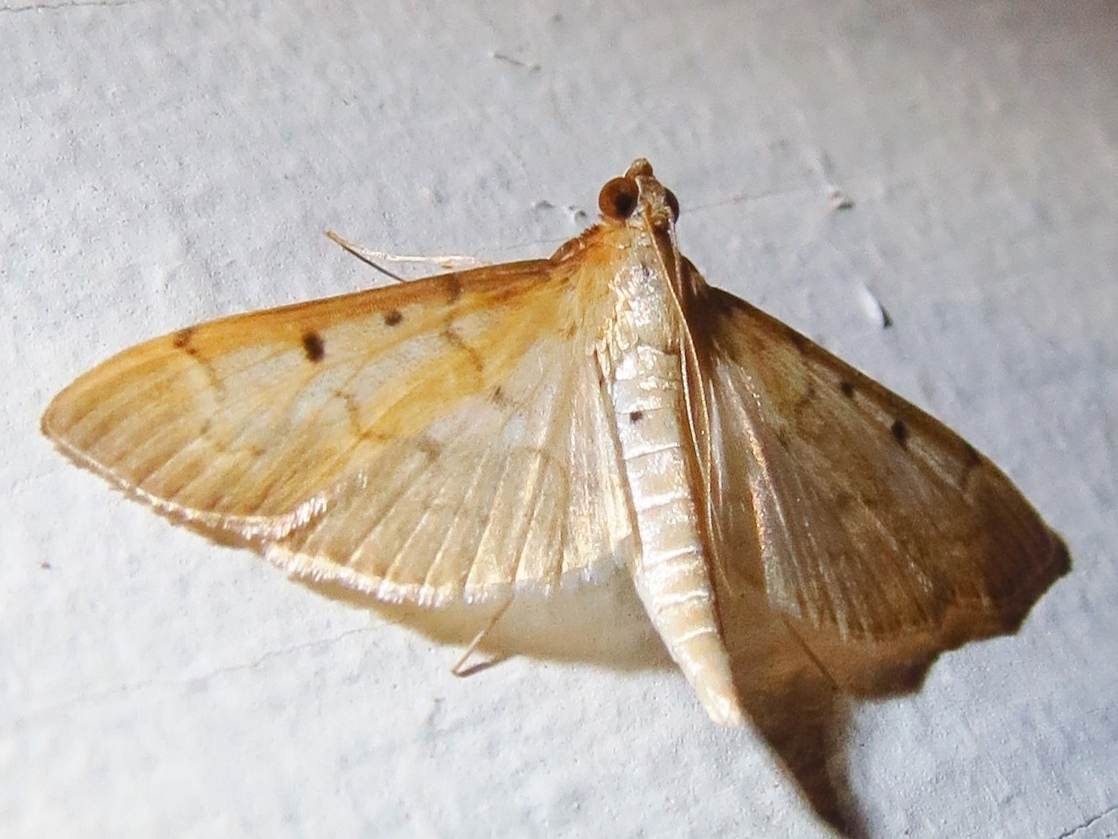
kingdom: Animalia
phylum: Arthropoda
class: Insecta
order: Lepidoptera
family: Crambidae
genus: Herpetogramma
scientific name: Herpetogramma bipunctalis
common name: Southern beet webworm
